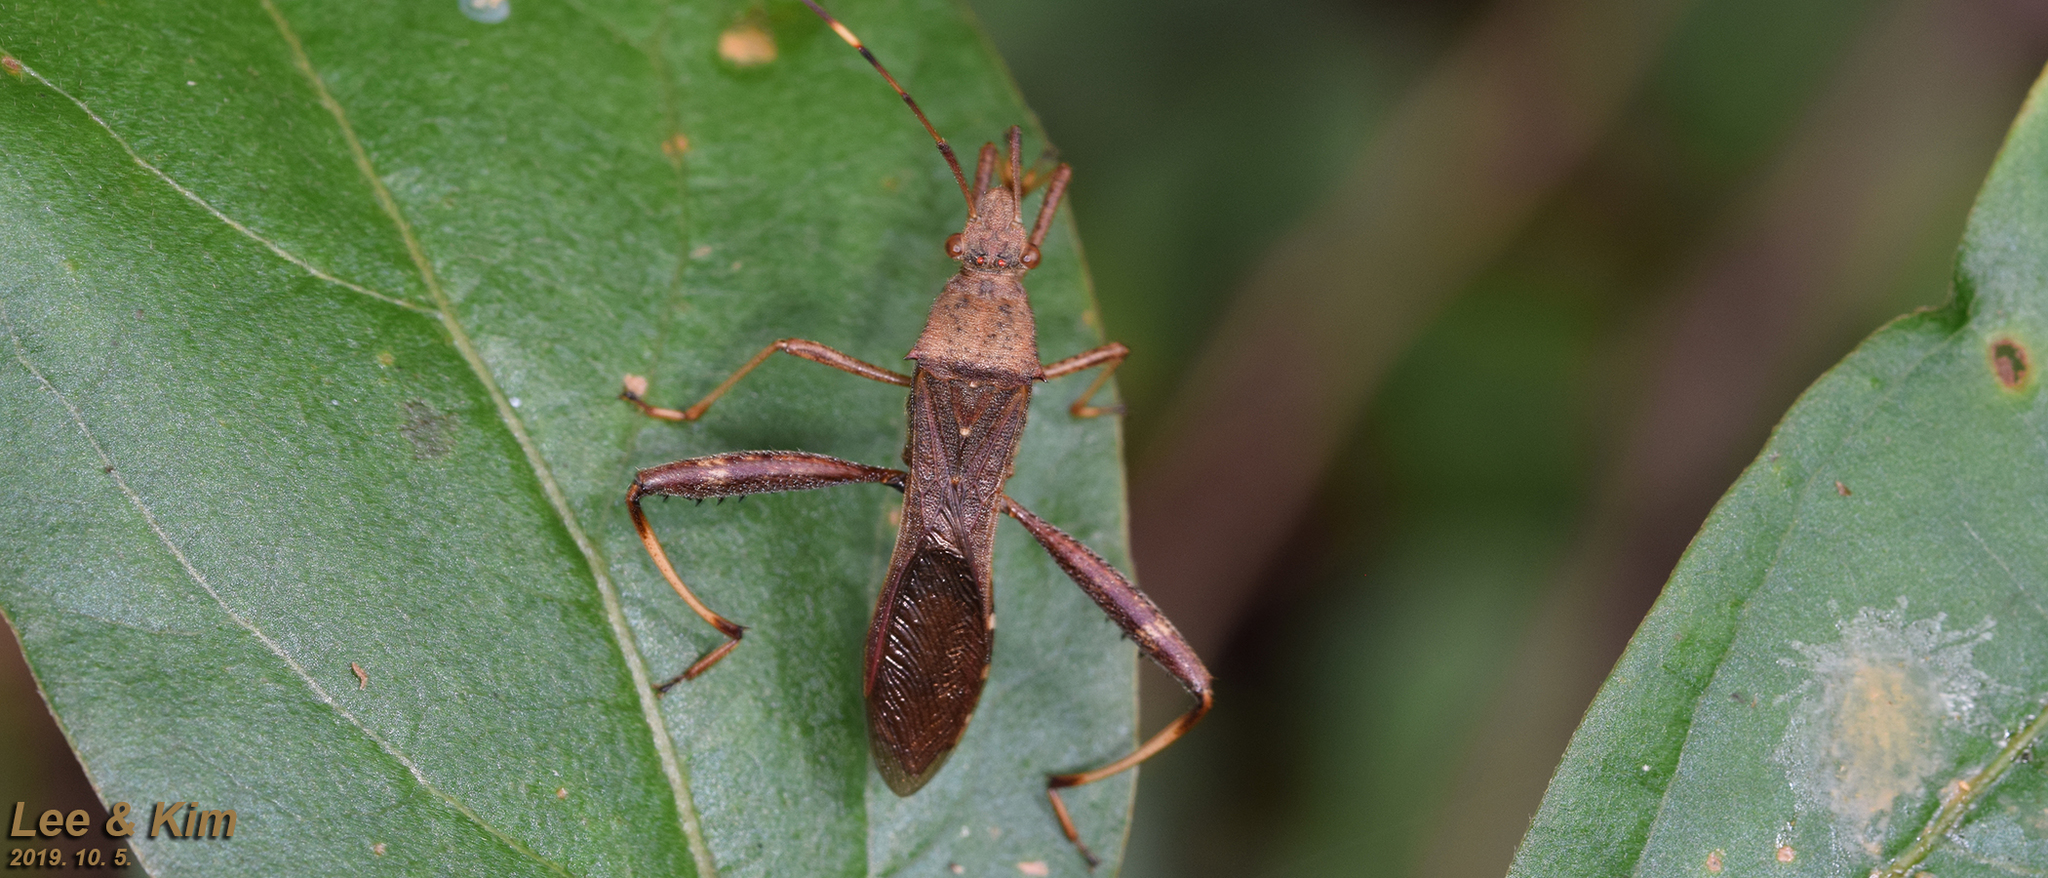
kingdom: Animalia
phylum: Arthropoda
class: Insecta
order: Hemiptera
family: Alydidae
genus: Riptortus
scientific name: Riptortus pedestris
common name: Bean bug
